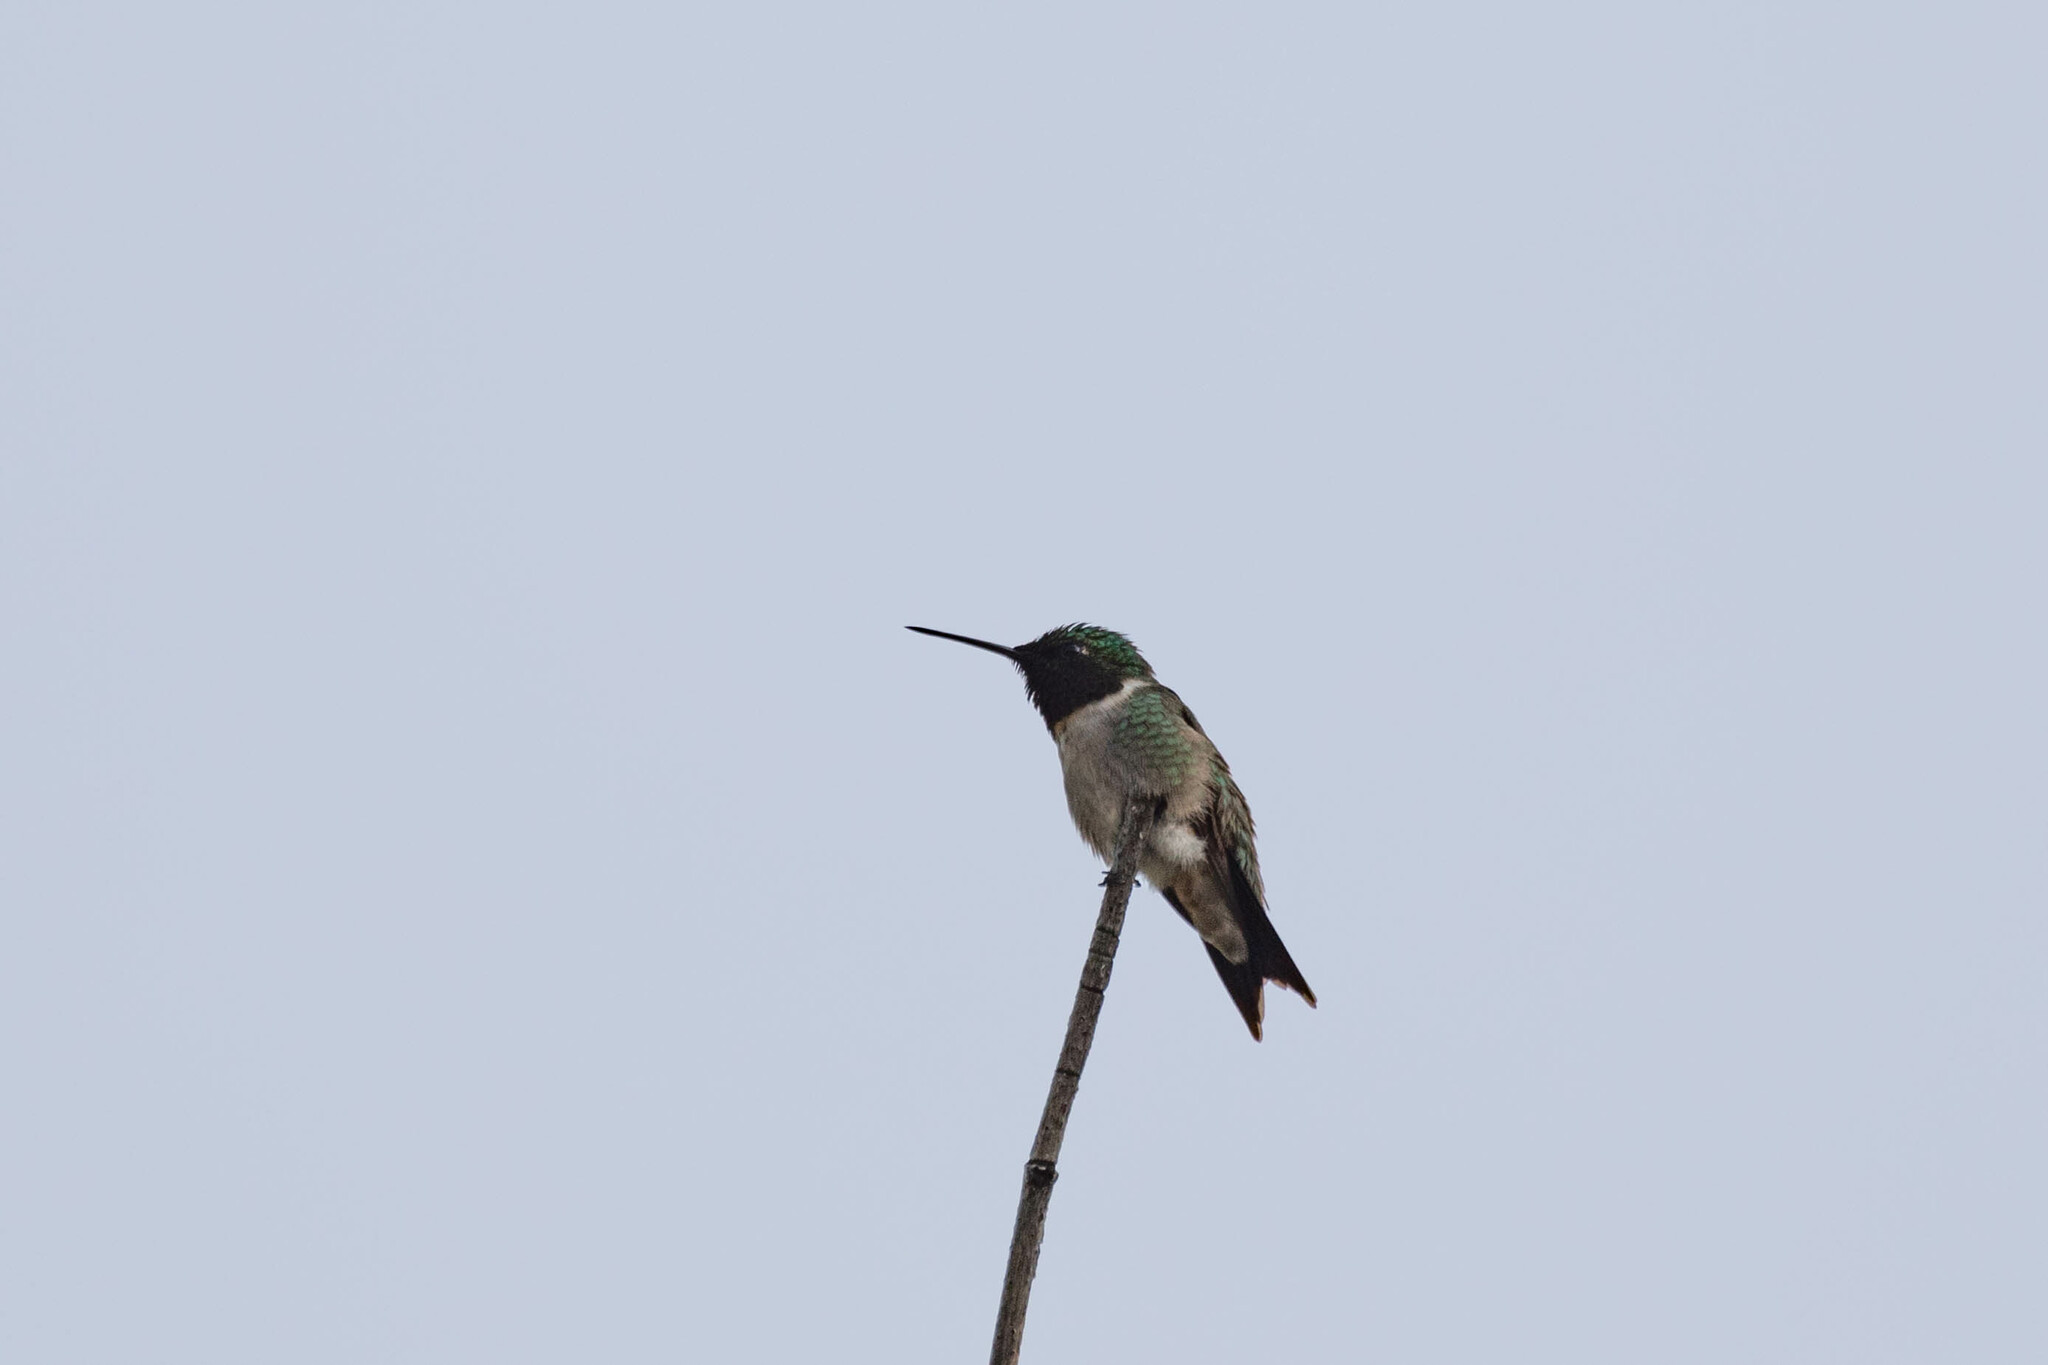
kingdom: Animalia
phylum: Chordata
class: Aves
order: Apodiformes
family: Trochilidae
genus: Archilochus
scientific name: Archilochus colubris
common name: Ruby-throated hummingbird
